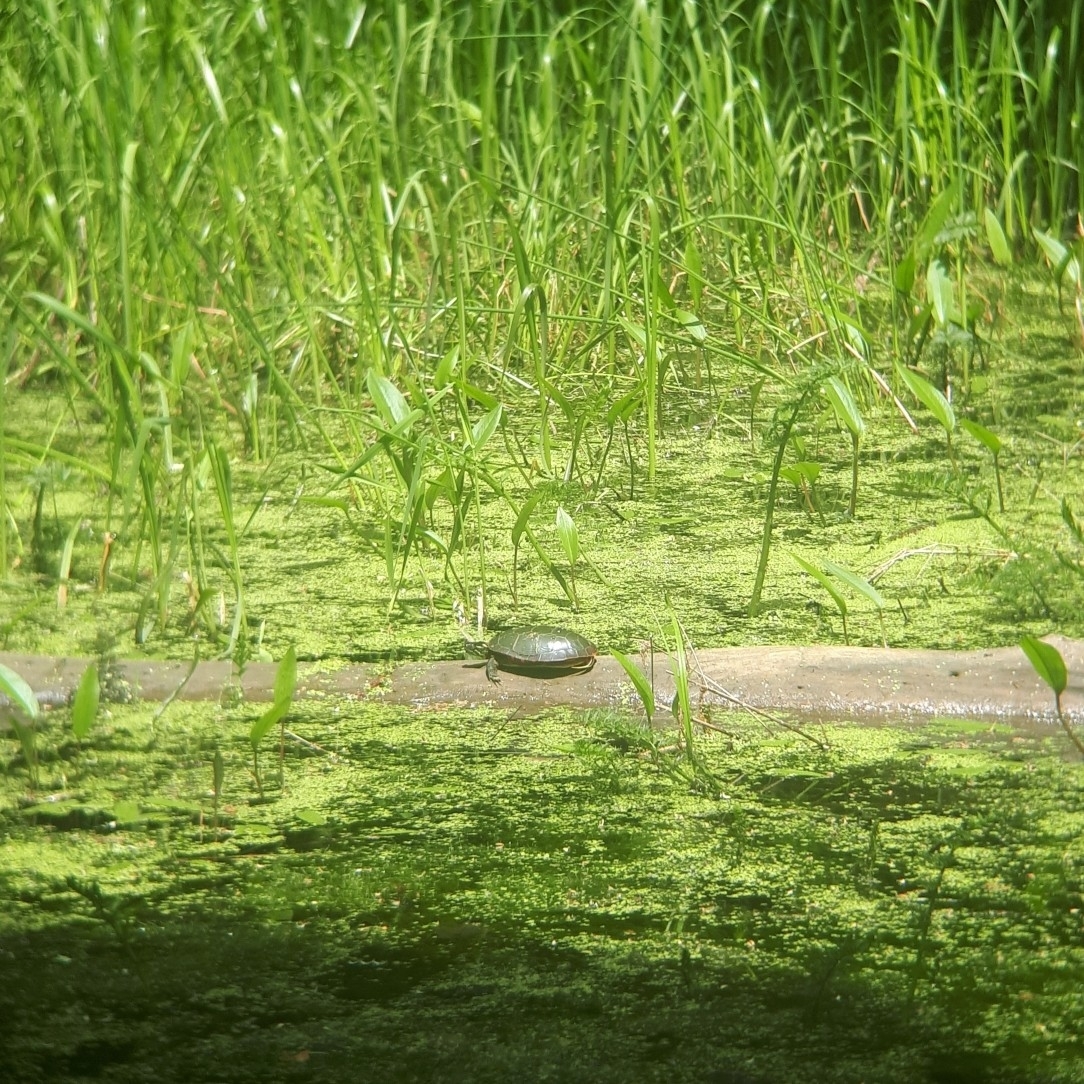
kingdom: Animalia
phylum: Chordata
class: Testudines
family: Emydidae
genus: Chrysemys
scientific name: Chrysemys picta
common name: Painted turtle
